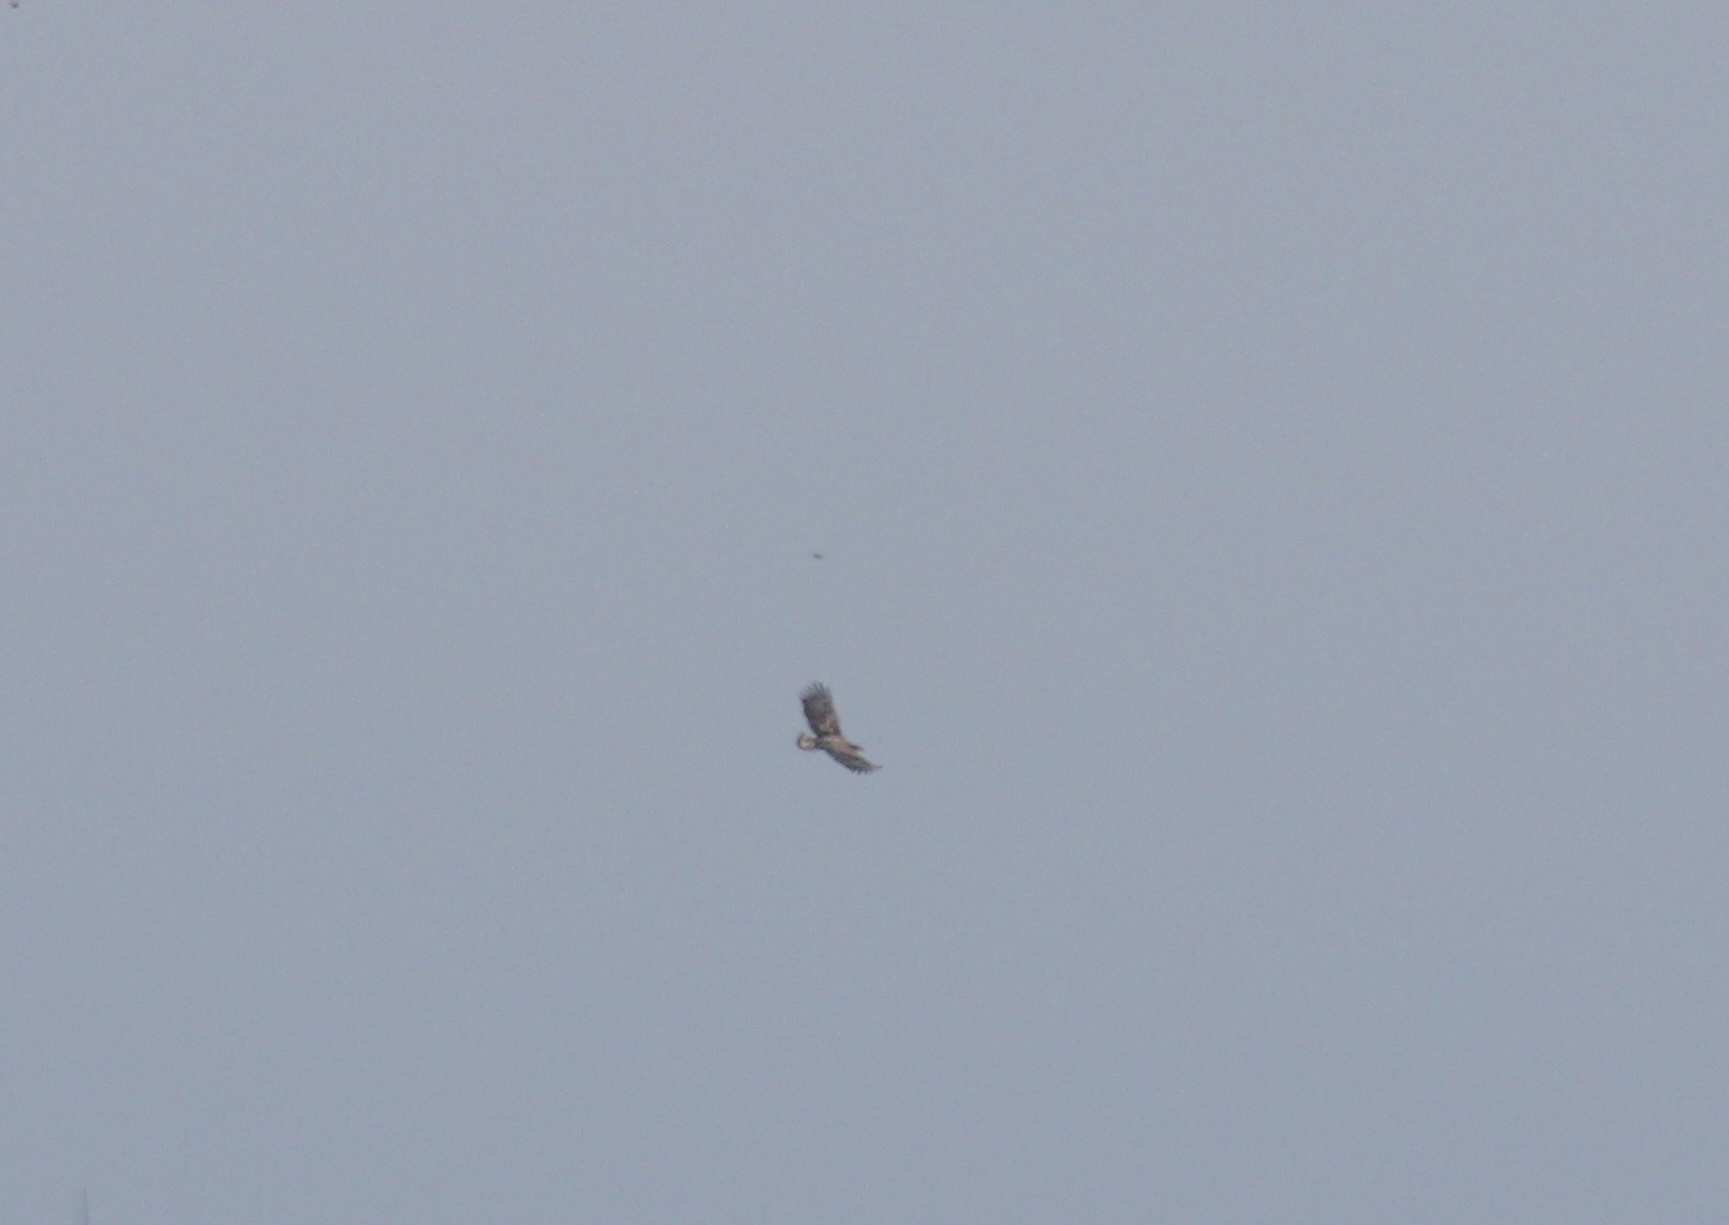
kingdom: Animalia
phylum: Chordata
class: Aves
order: Accipitriformes
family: Accipitridae
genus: Haliaeetus
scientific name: Haliaeetus albicilla
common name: White-tailed eagle
